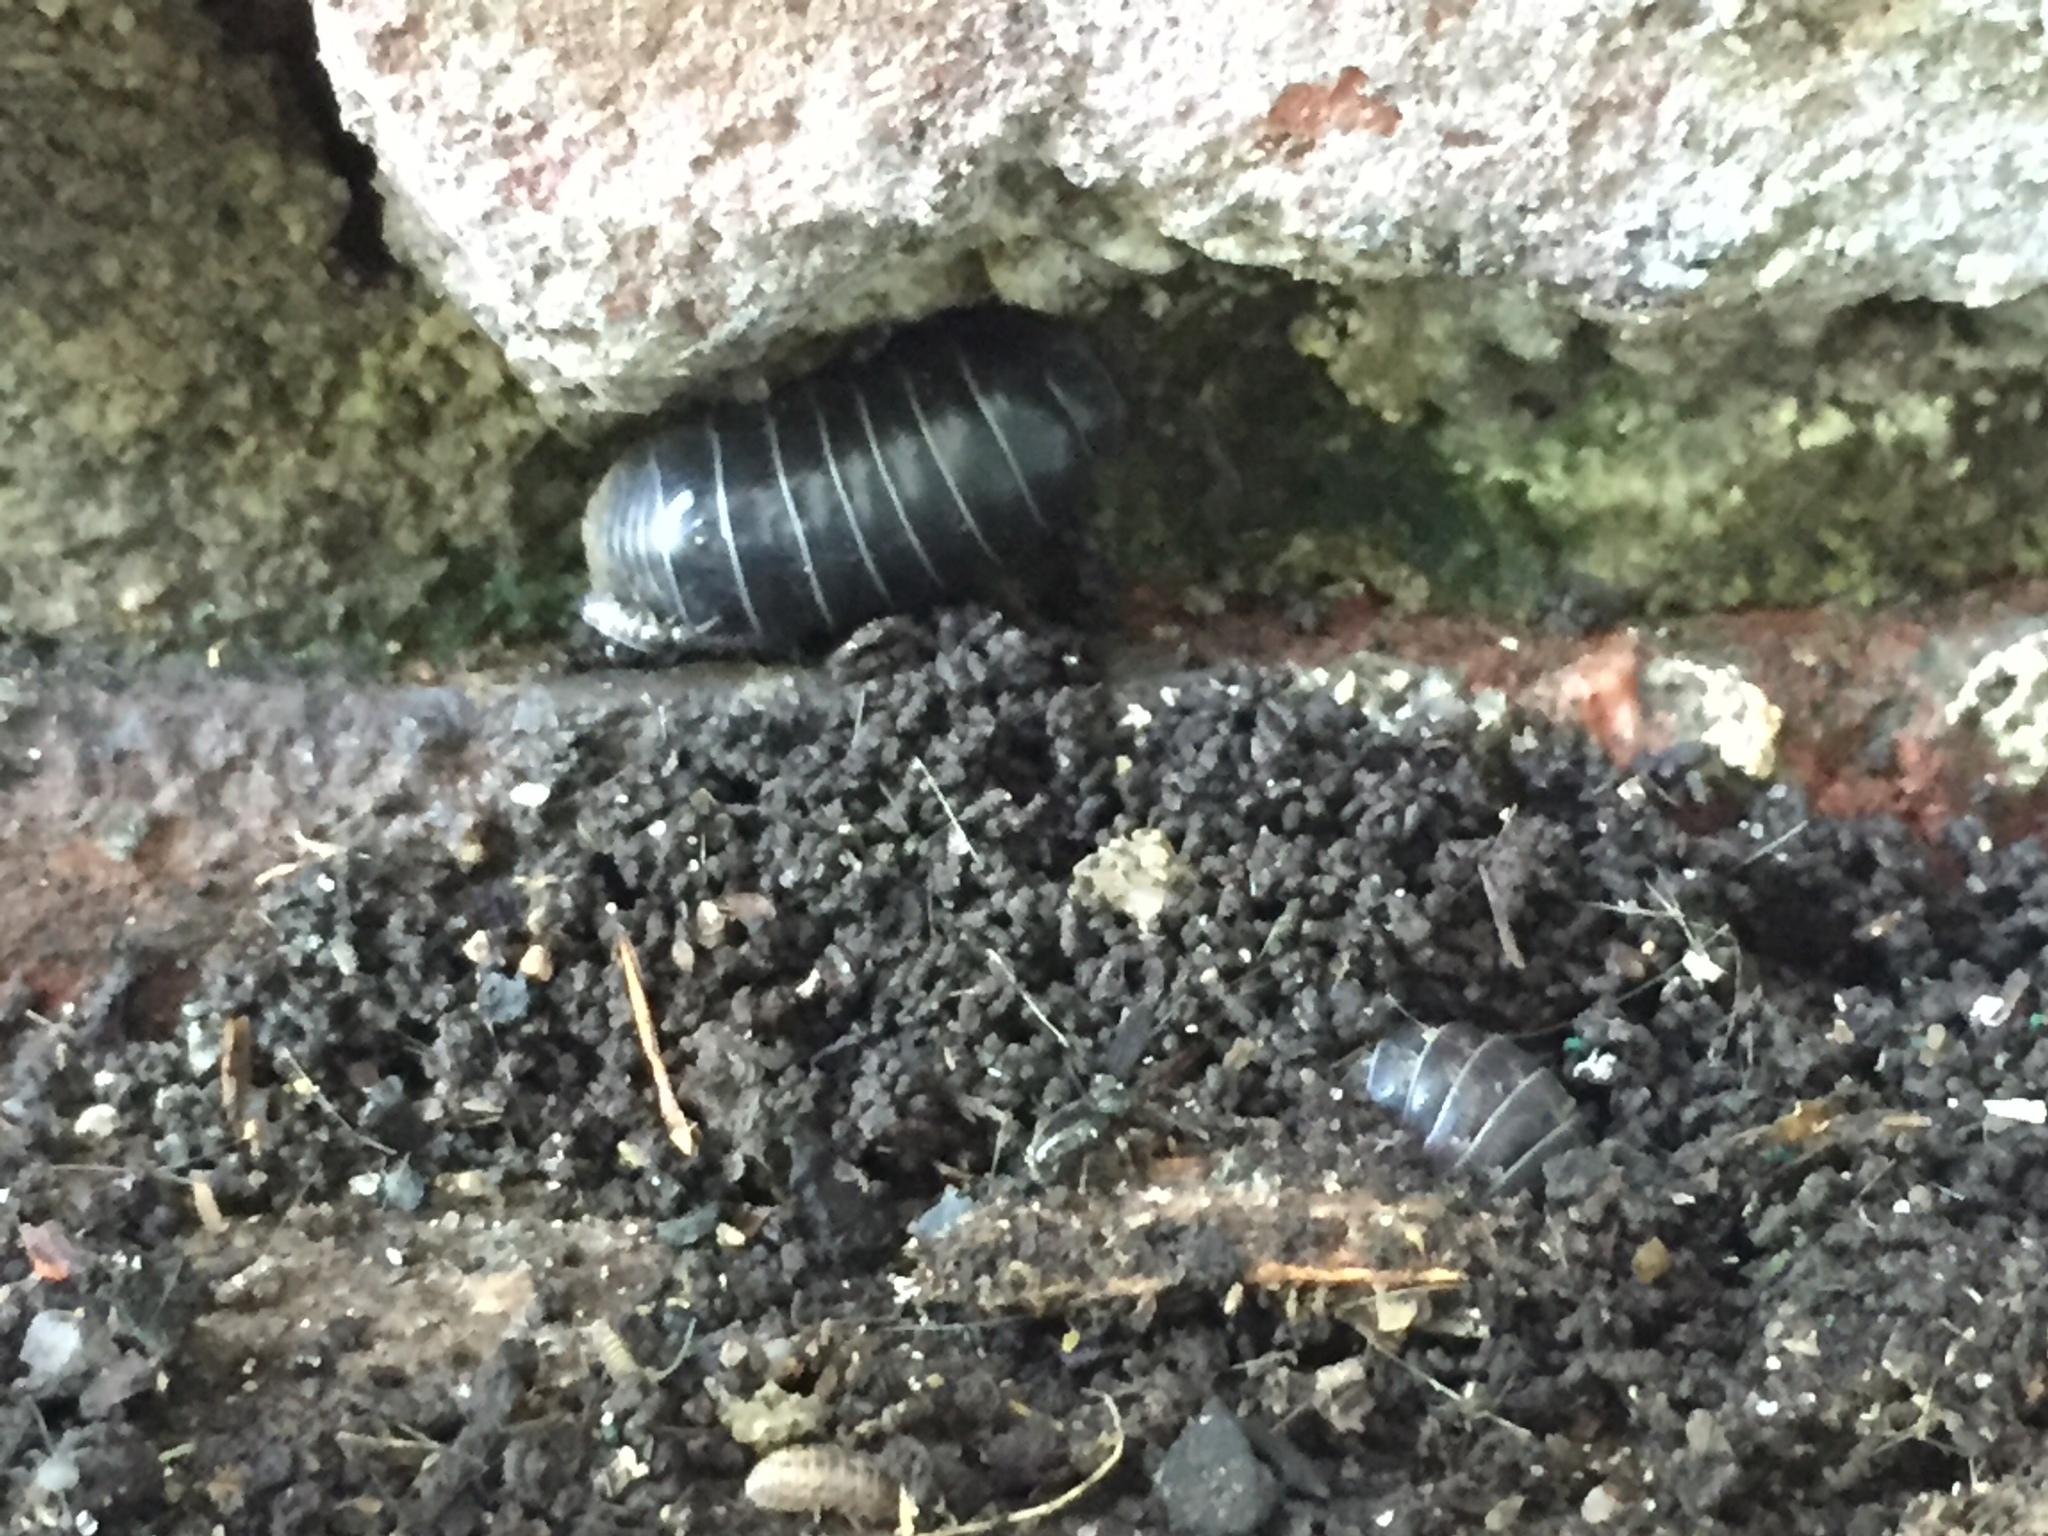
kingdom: Animalia
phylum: Arthropoda
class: Malacostraca
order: Isopoda
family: Armadillidiidae
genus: Armadillidium
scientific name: Armadillidium vulgare
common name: Common pill woodlouse
